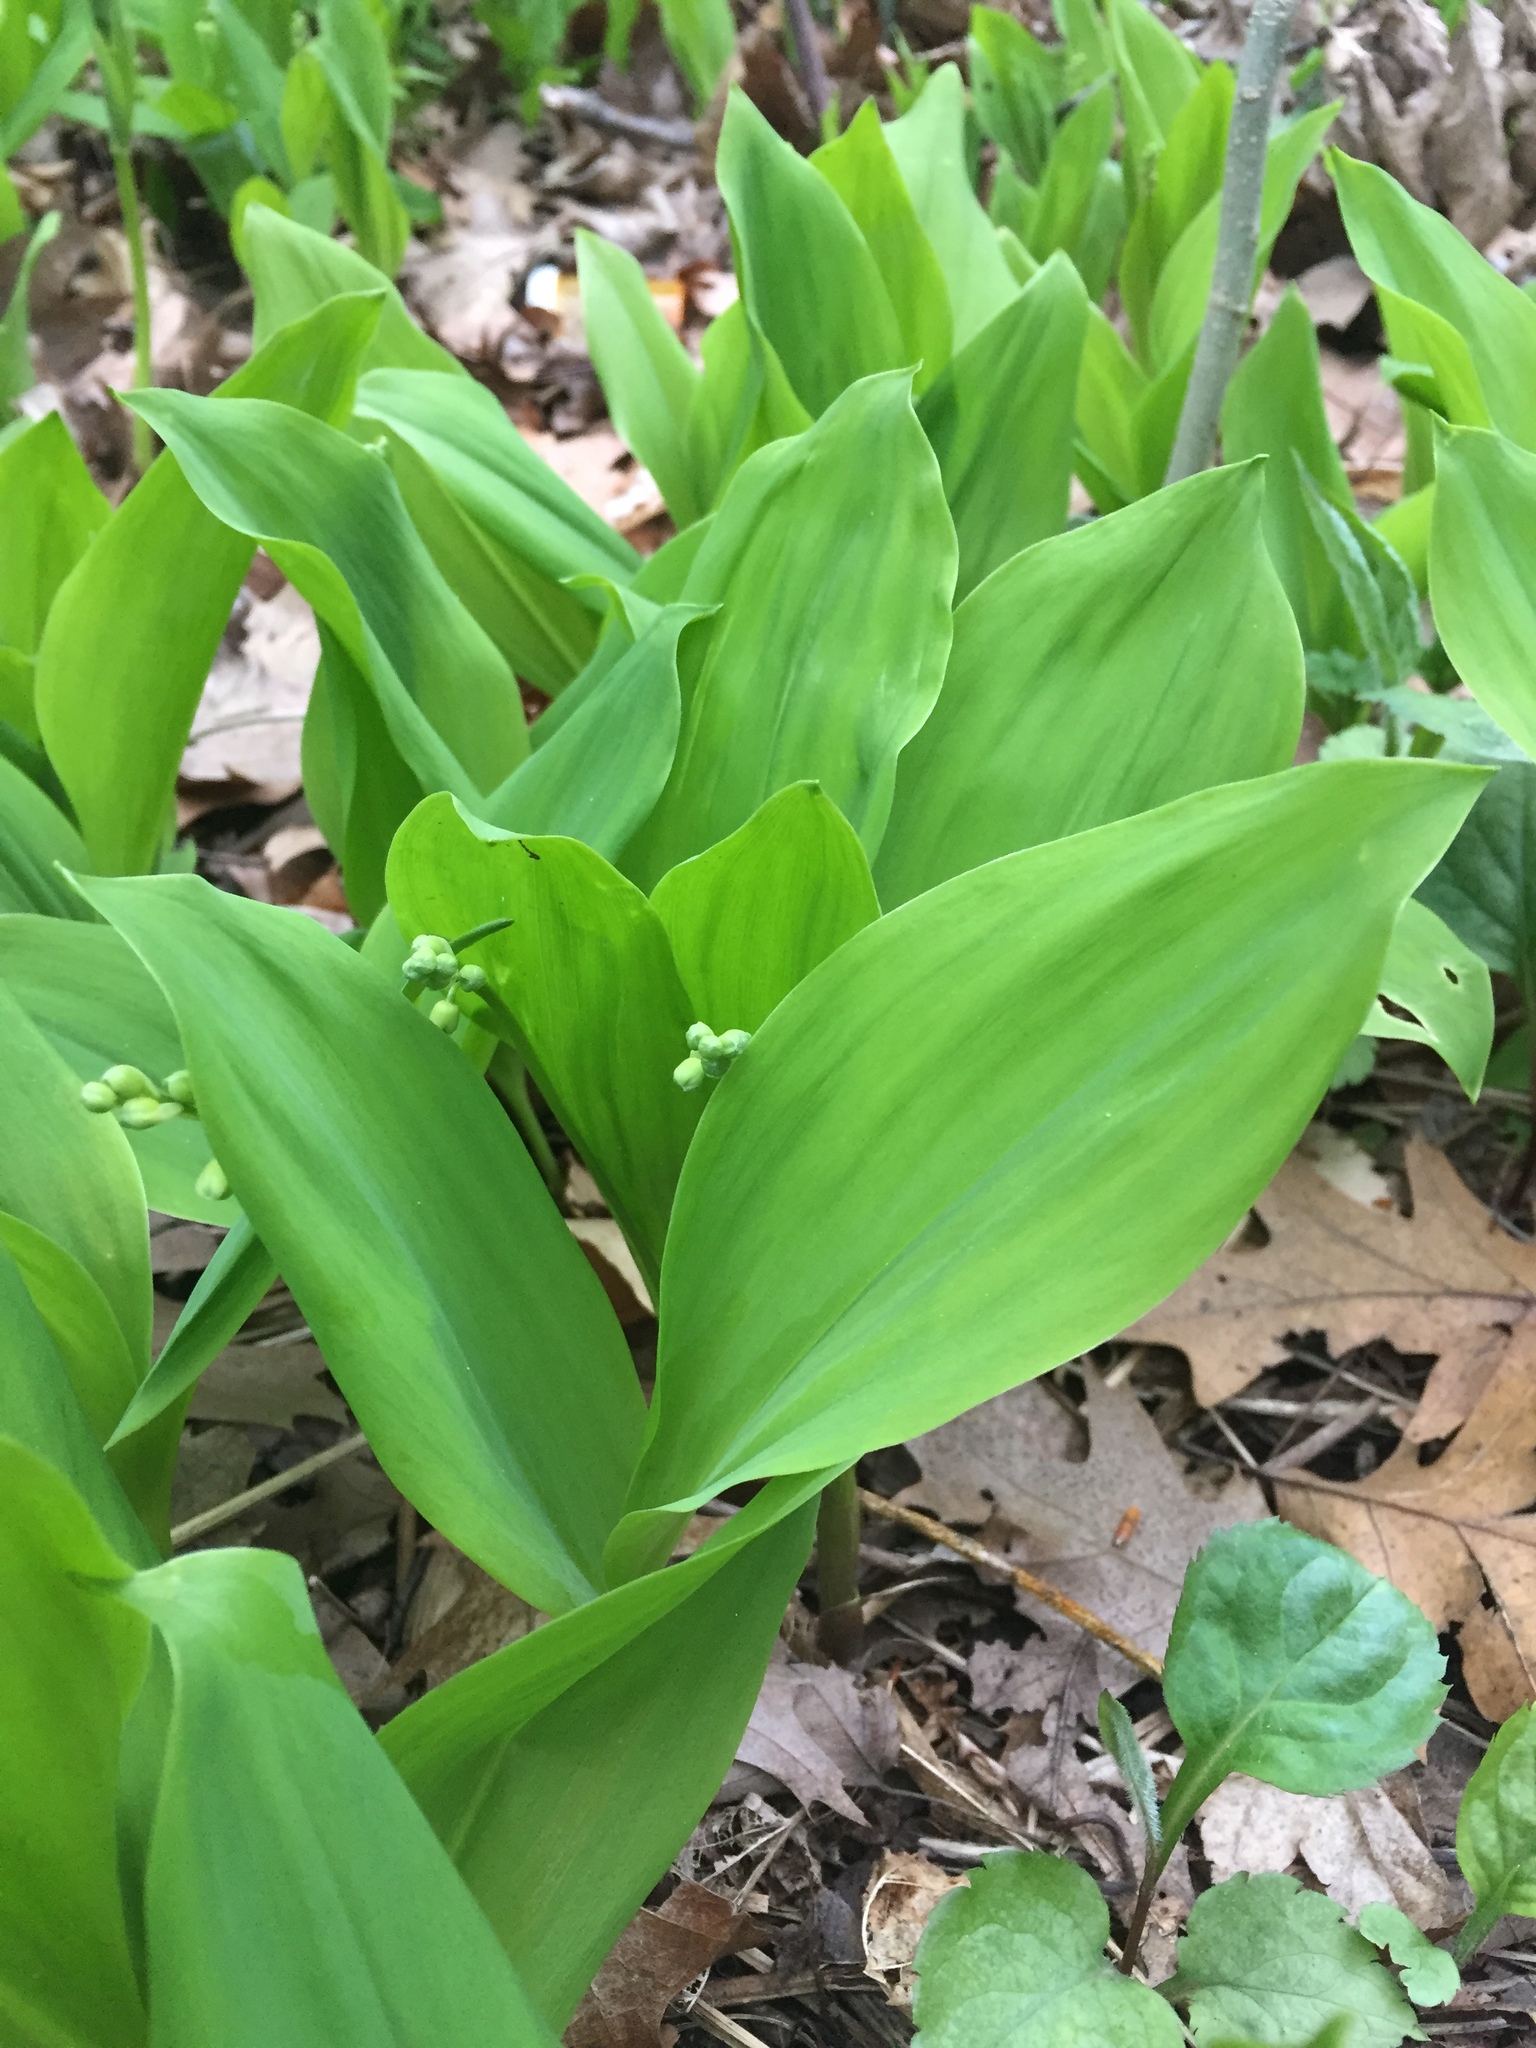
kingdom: Plantae
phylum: Tracheophyta
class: Liliopsida
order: Asparagales
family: Asparagaceae
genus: Convallaria
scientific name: Convallaria majalis
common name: Lily-of-the-valley
